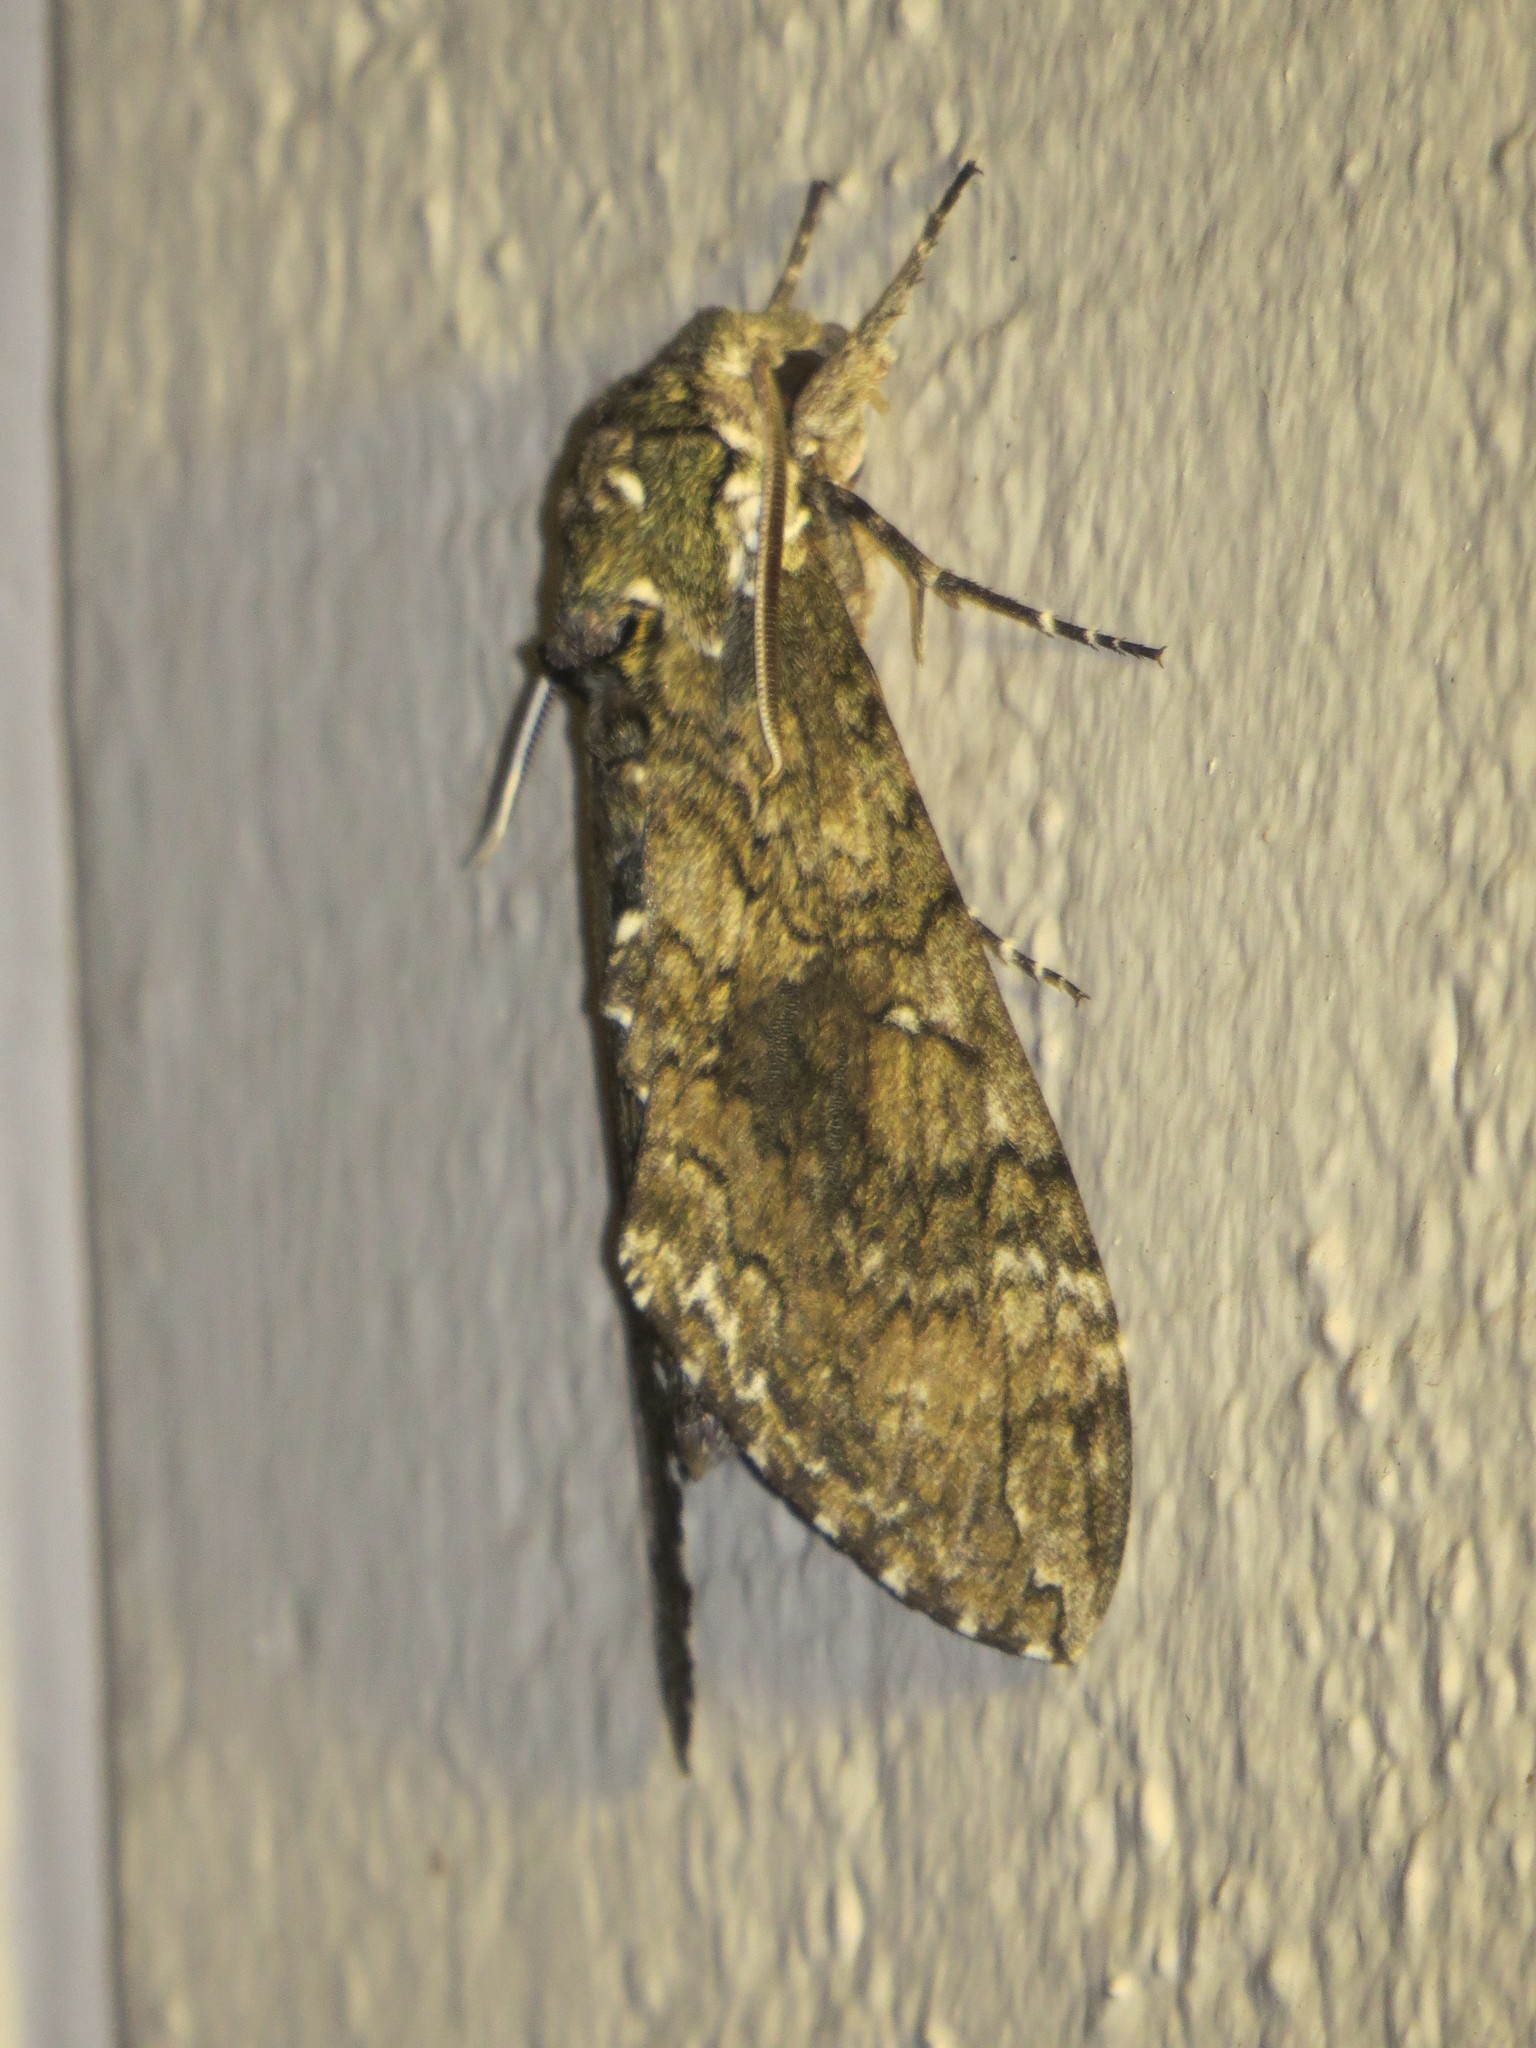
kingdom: Animalia
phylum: Arthropoda
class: Insecta
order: Lepidoptera
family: Sphingidae
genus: Manduca
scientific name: Manduca sexta
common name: Carolina sphinx
